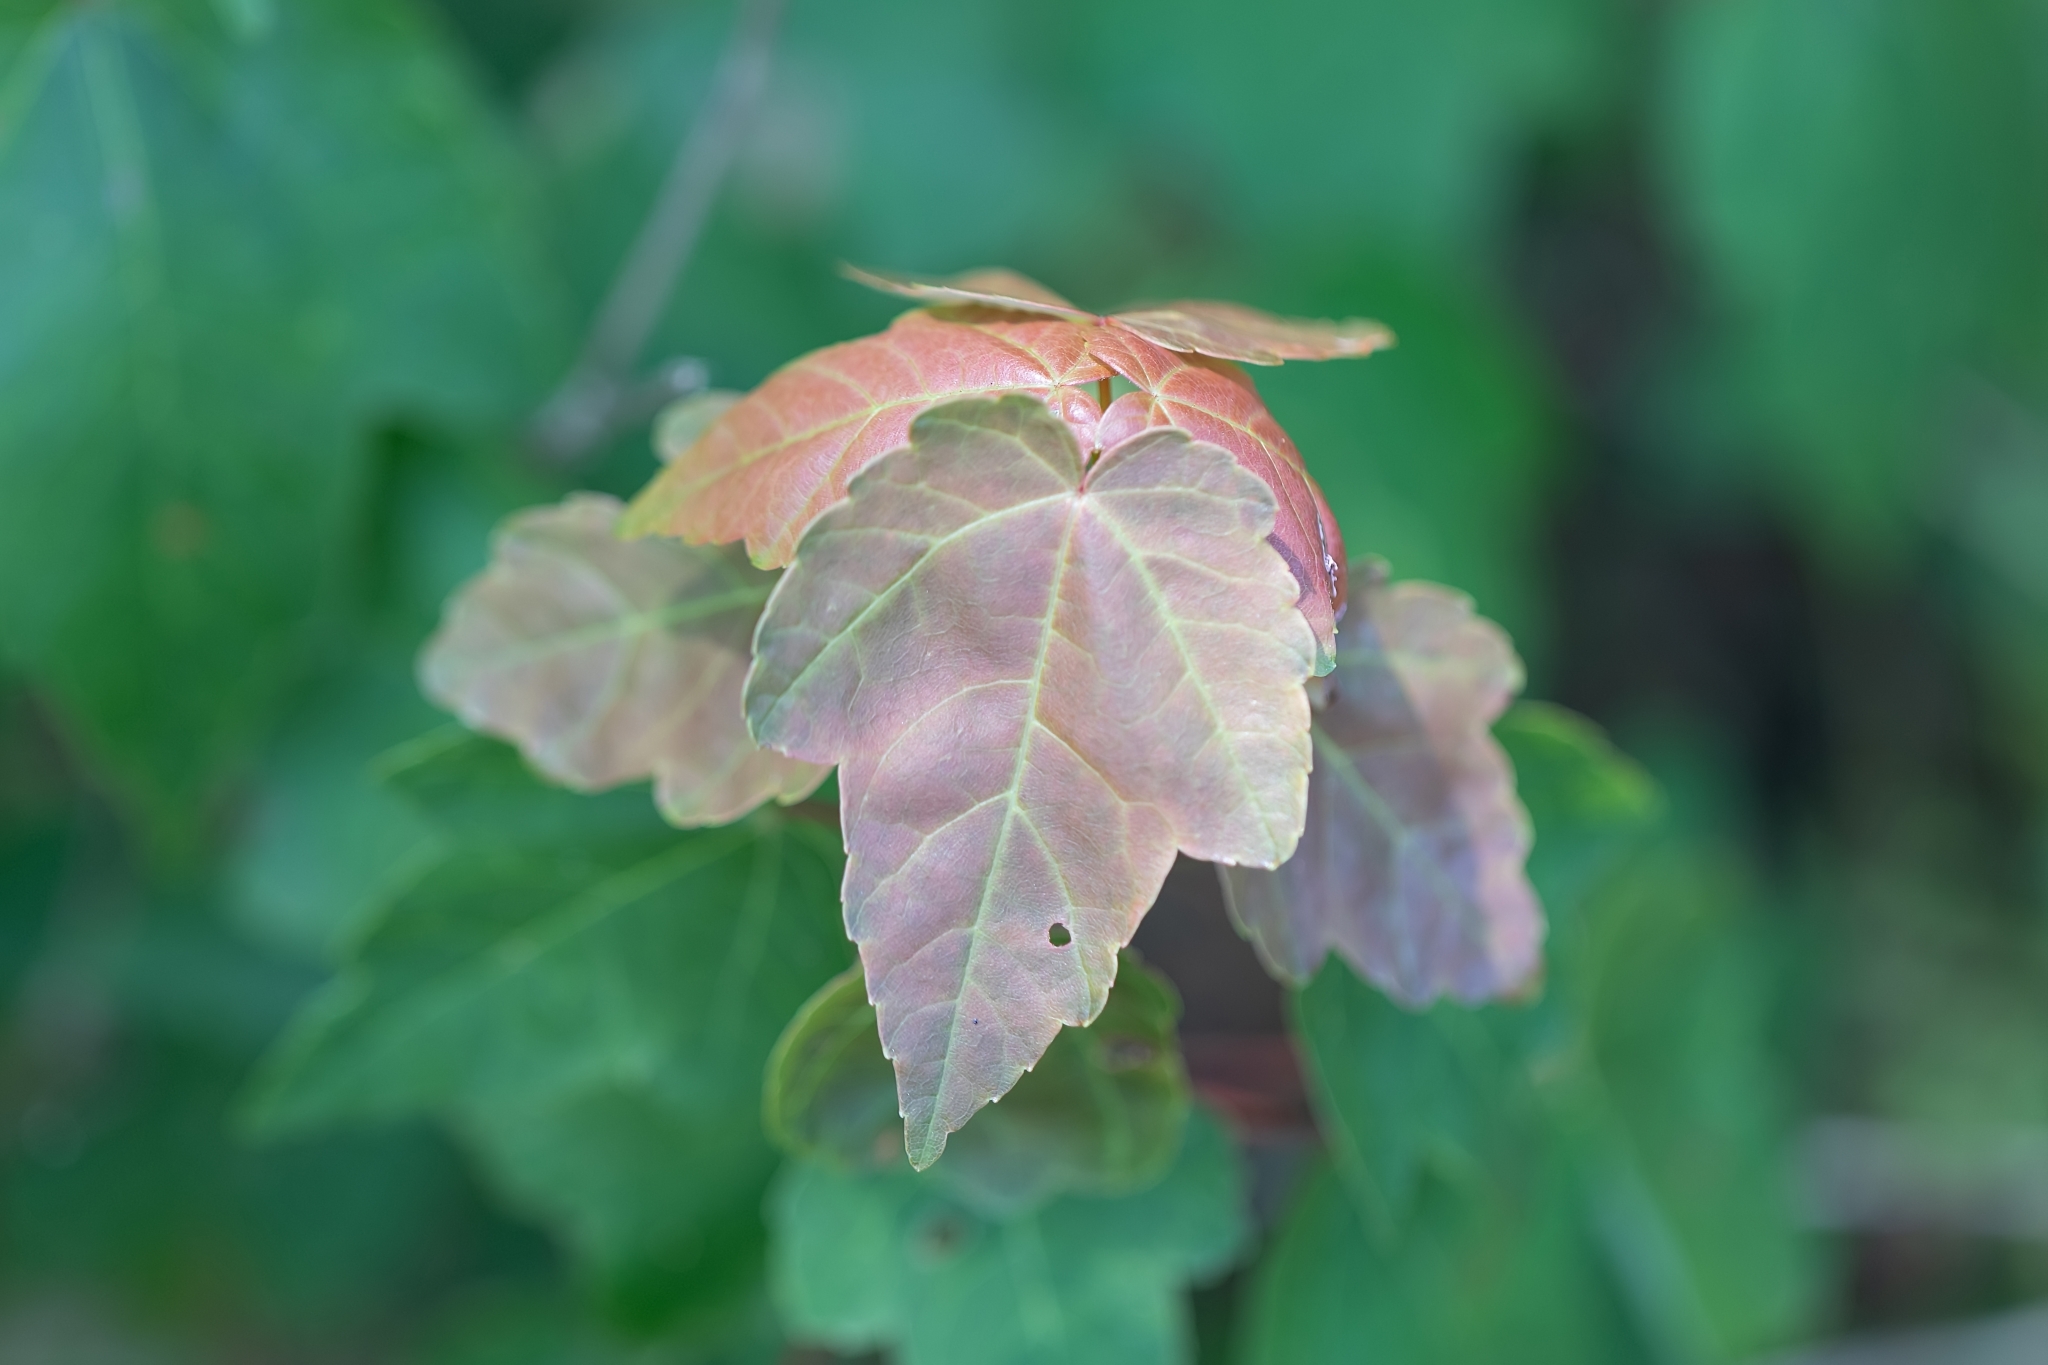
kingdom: Plantae
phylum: Tracheophyta
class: Magnoliopsida
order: Sapindales
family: Sapindaceae
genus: Acer
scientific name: Acer rubrum
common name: Red maple
